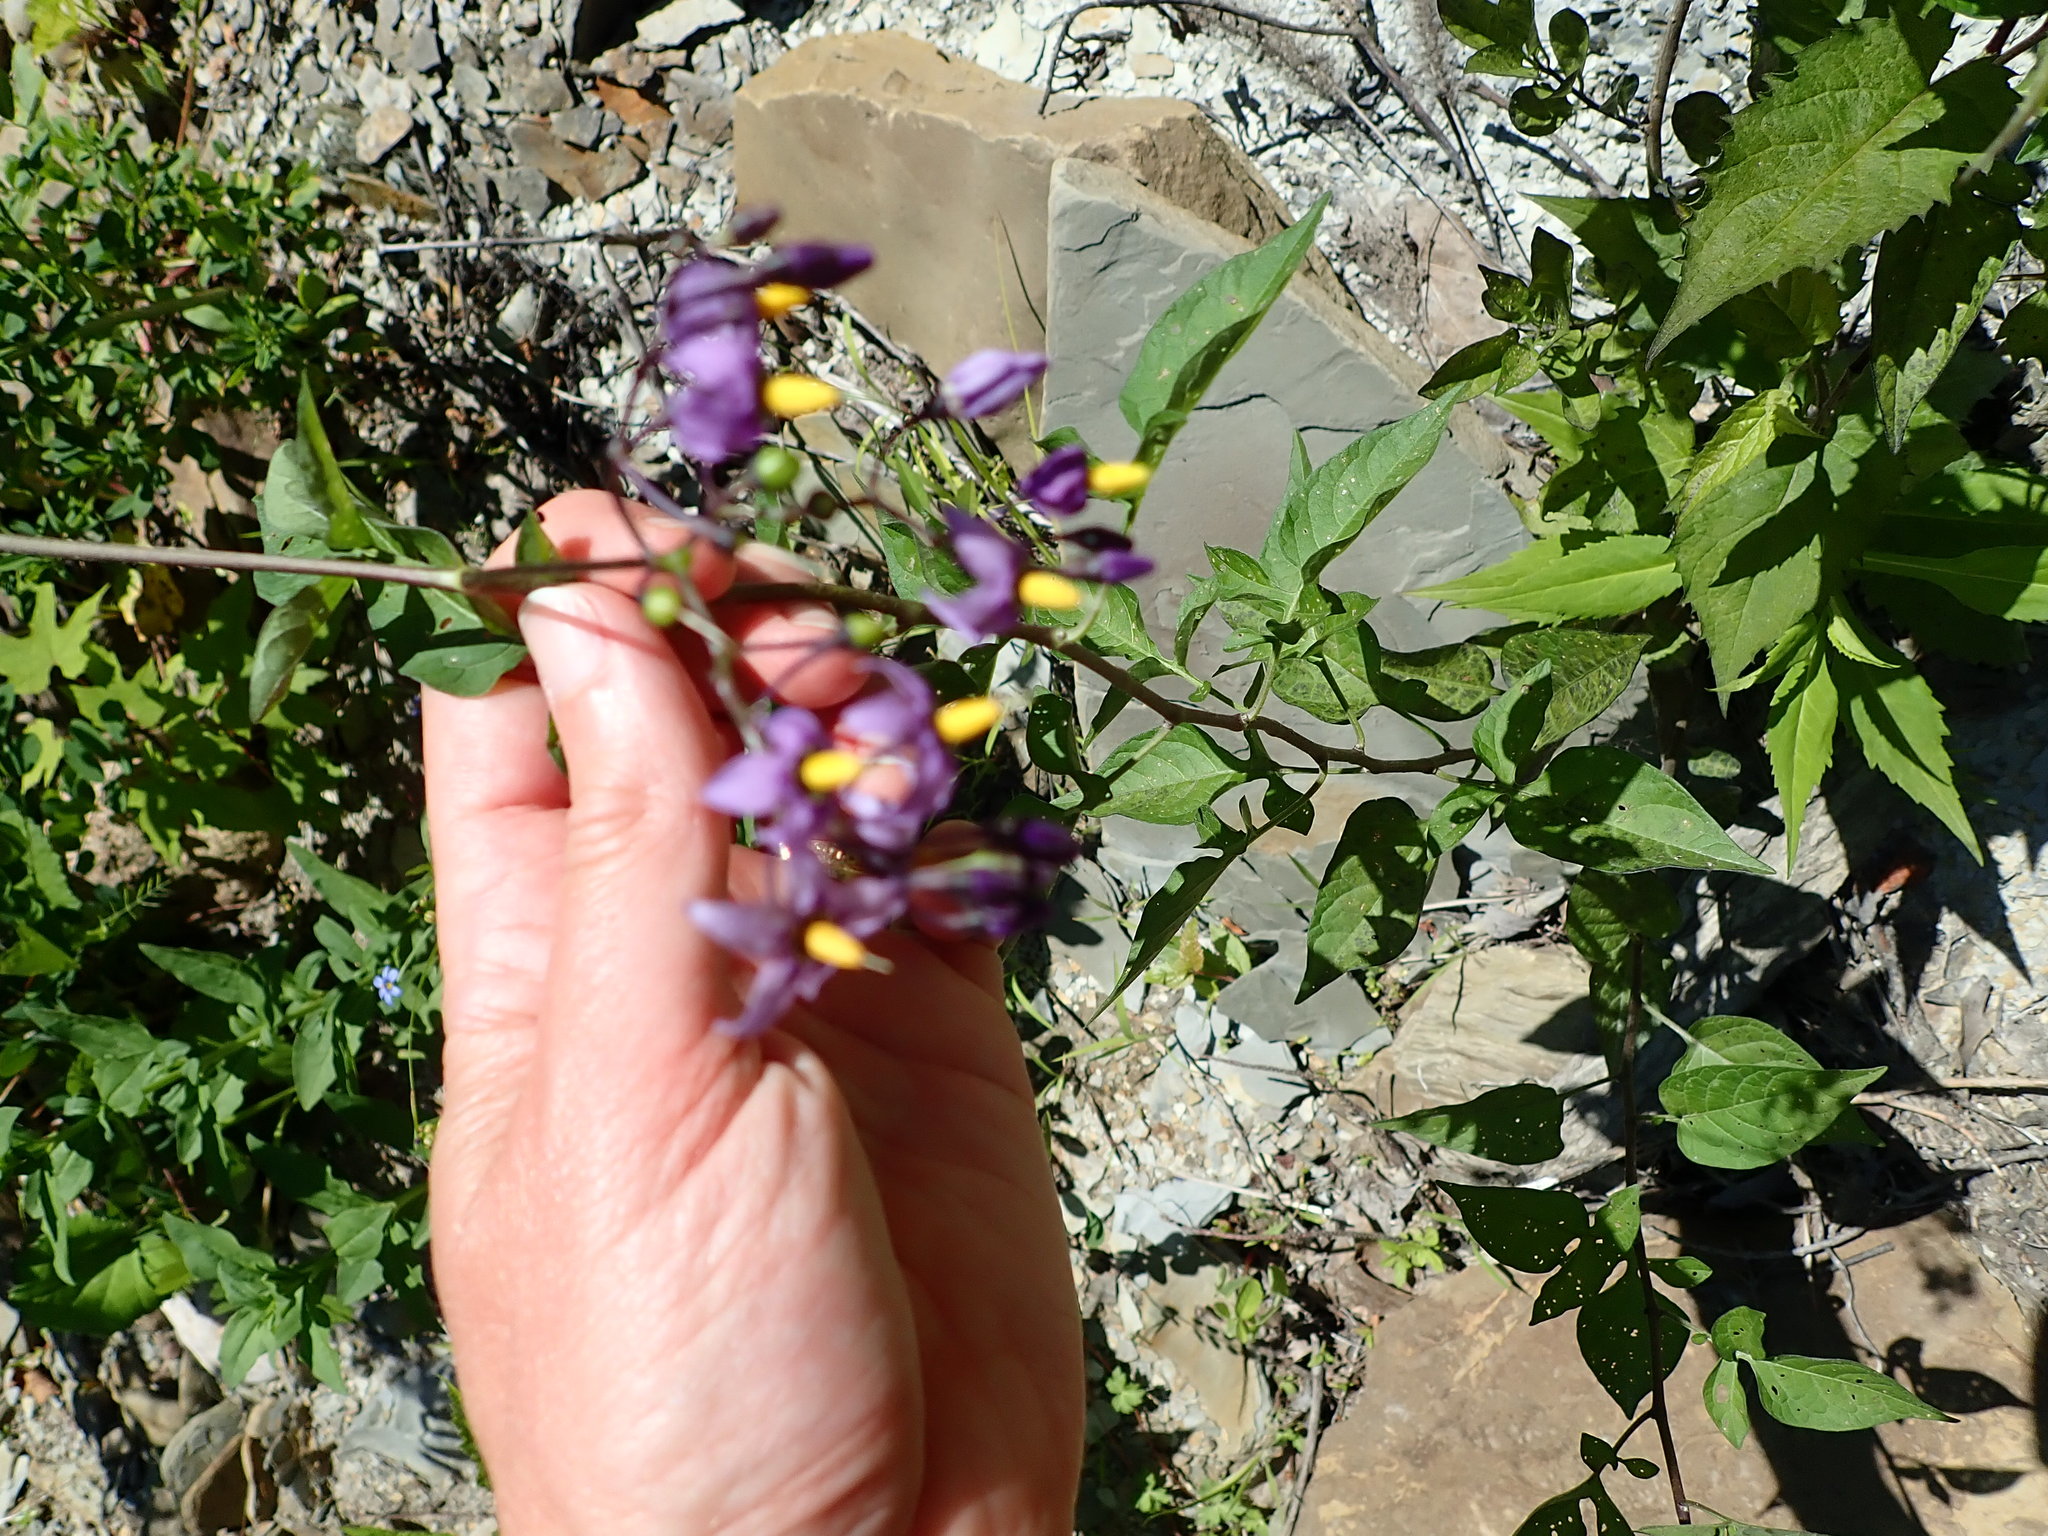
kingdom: Plantae
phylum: Tracheophyta
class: Magnoliopsida
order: Solanales
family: Solanaceae
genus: Solanum
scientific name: Solanum dulcamara
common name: Climbing nightshade
